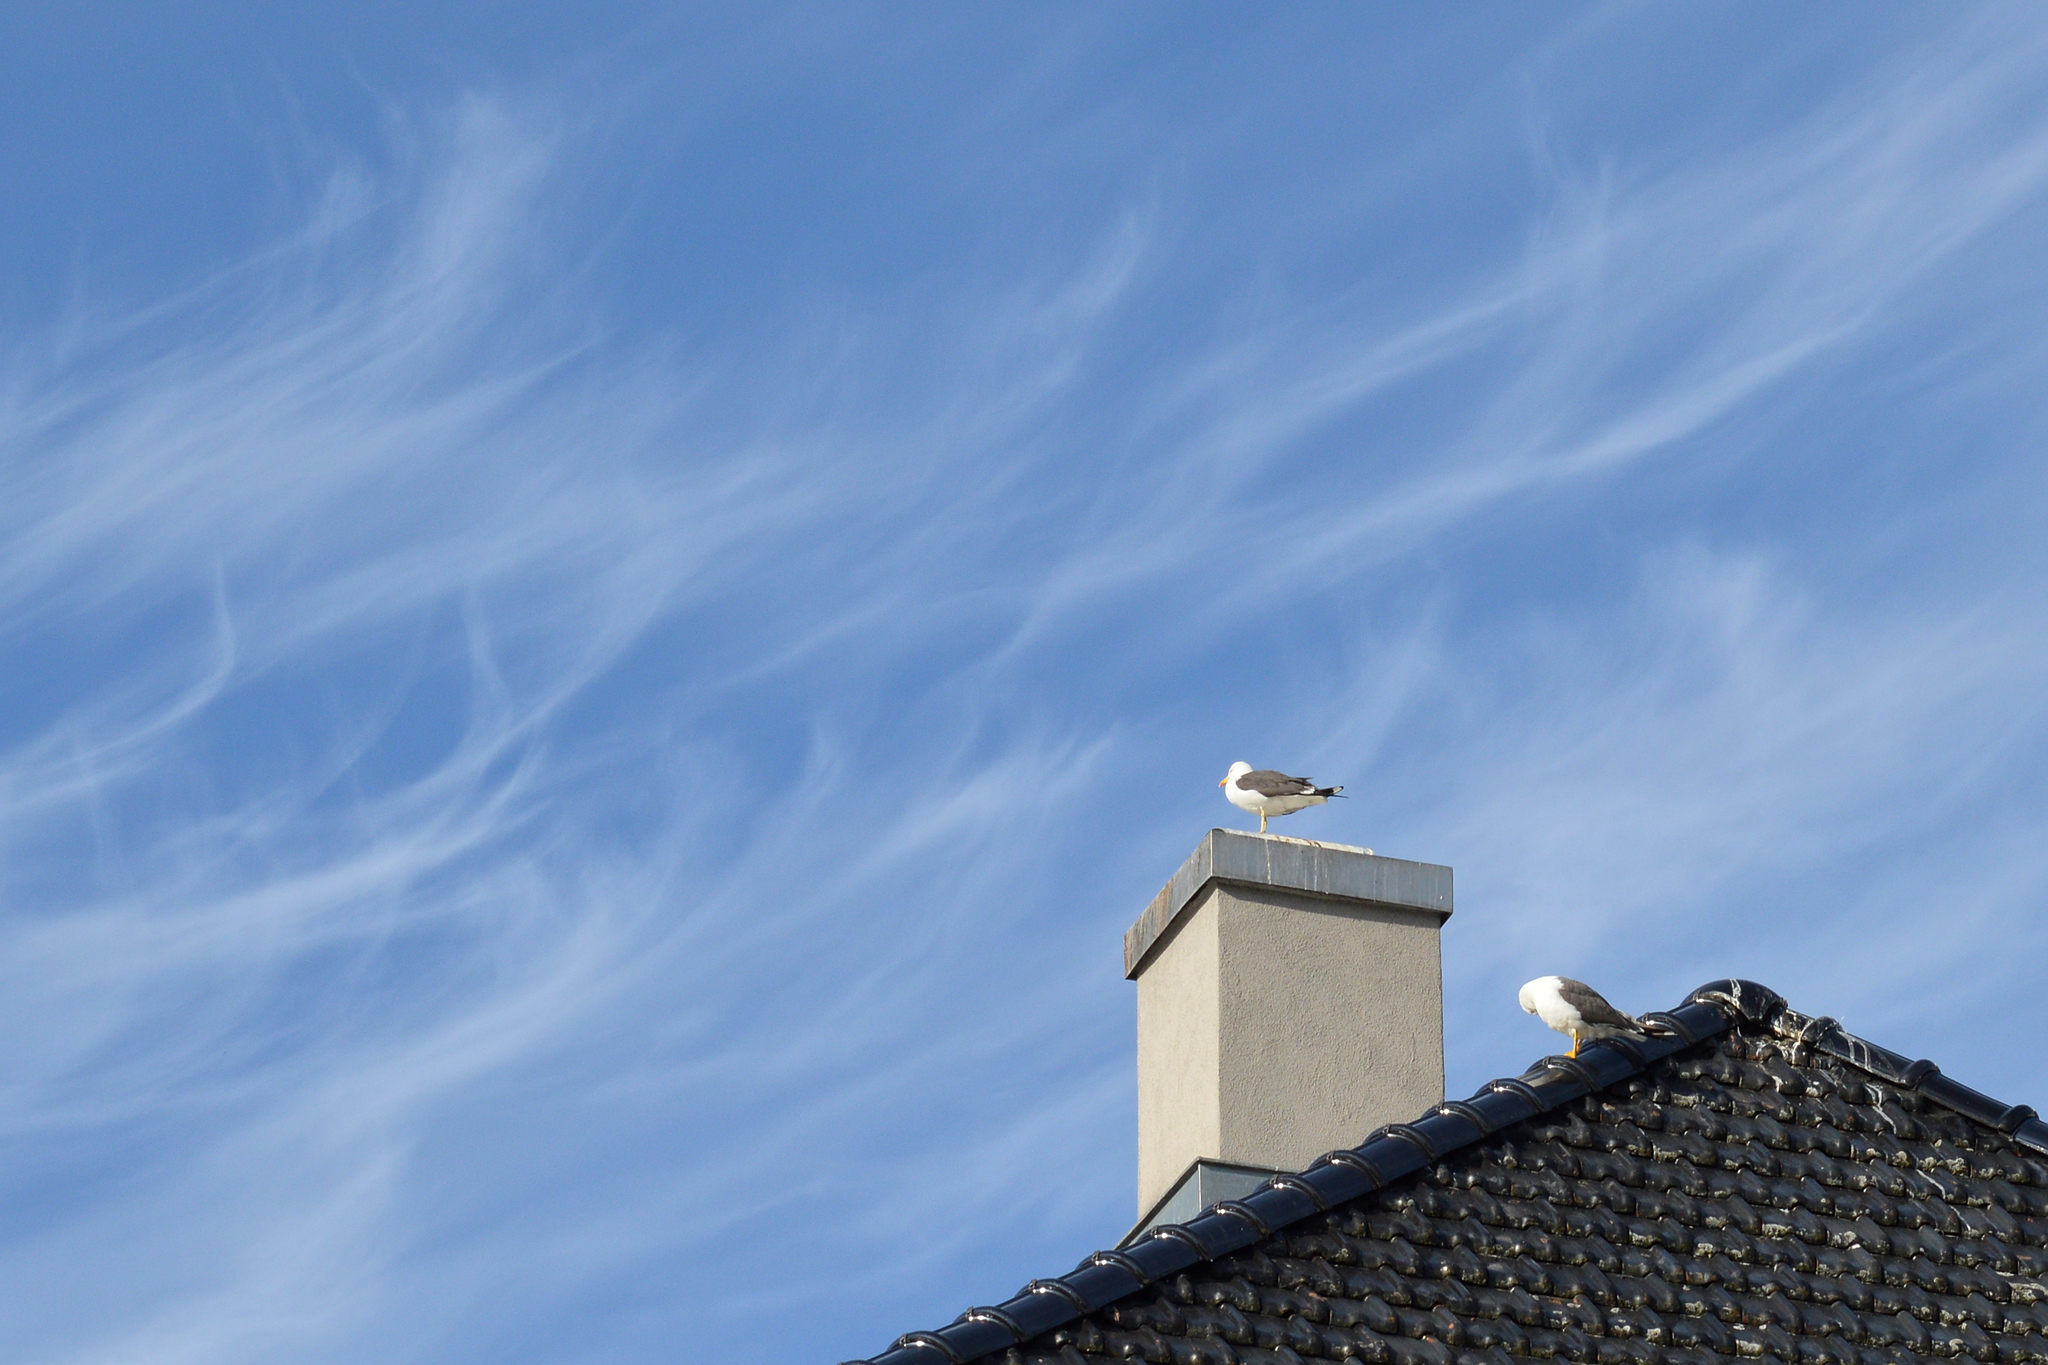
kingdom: Animalia
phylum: Chordata
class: Aves
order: Charadriiformes
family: Laridae
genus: Larus
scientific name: Larus fuscus
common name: Lesser black-backed gull
